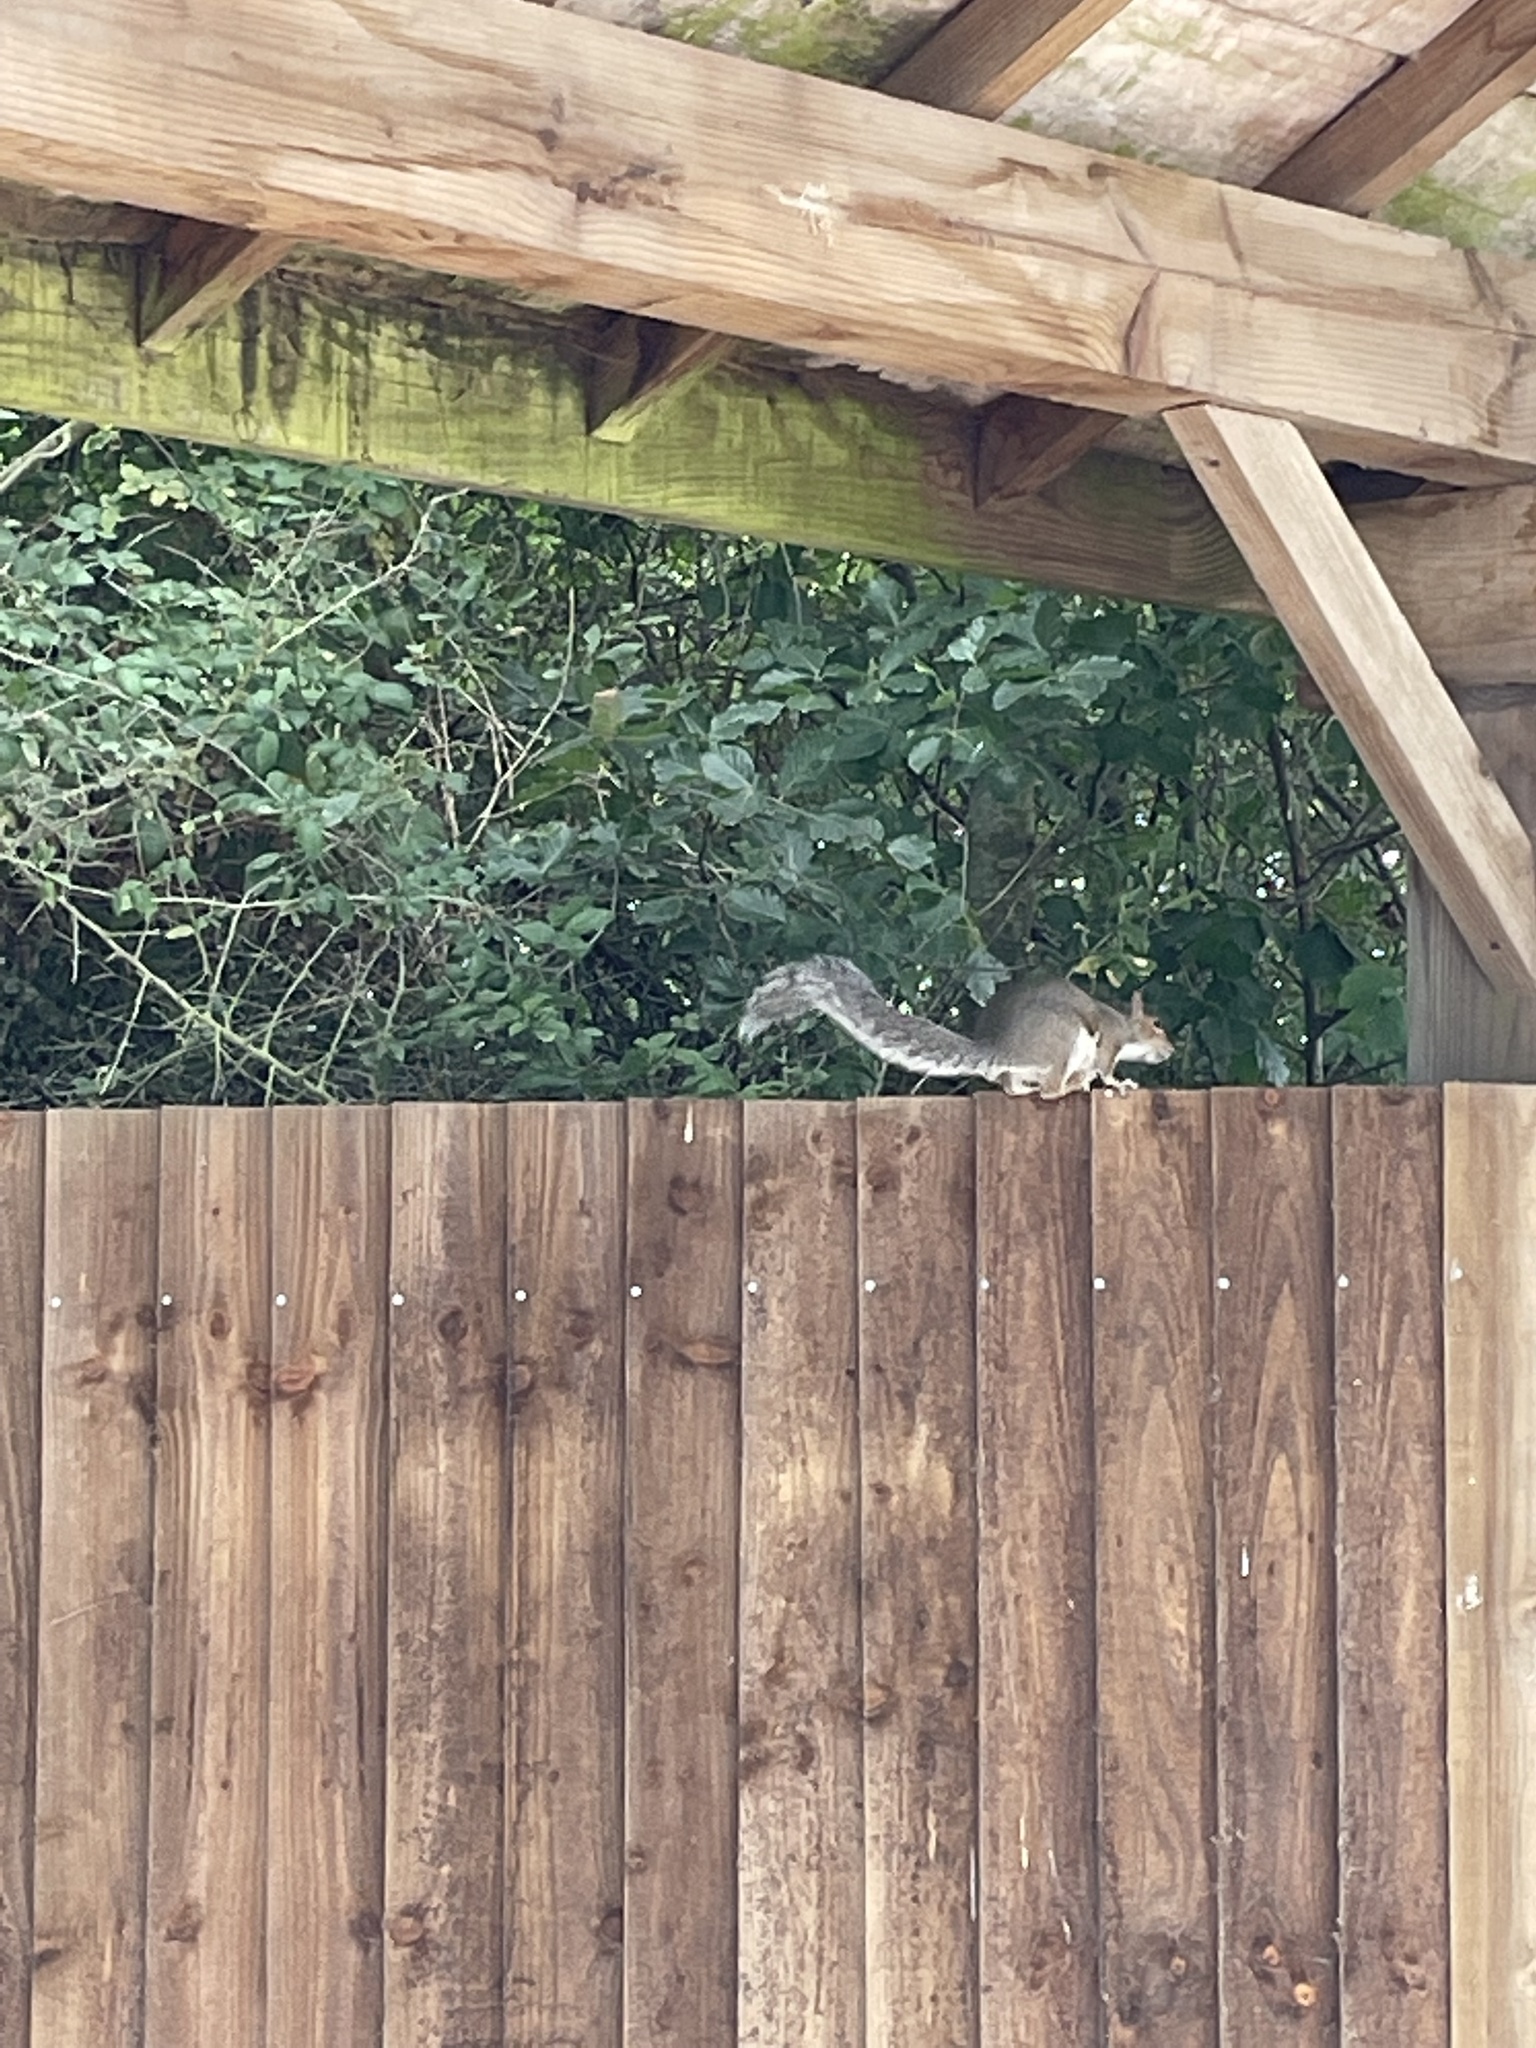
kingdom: Animalia
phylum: Chordata
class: Mammalia
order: Rodentia
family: Sciuridae
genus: Sciurus
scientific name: Sciurus carolinensis
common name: Eastern gray squirrel
